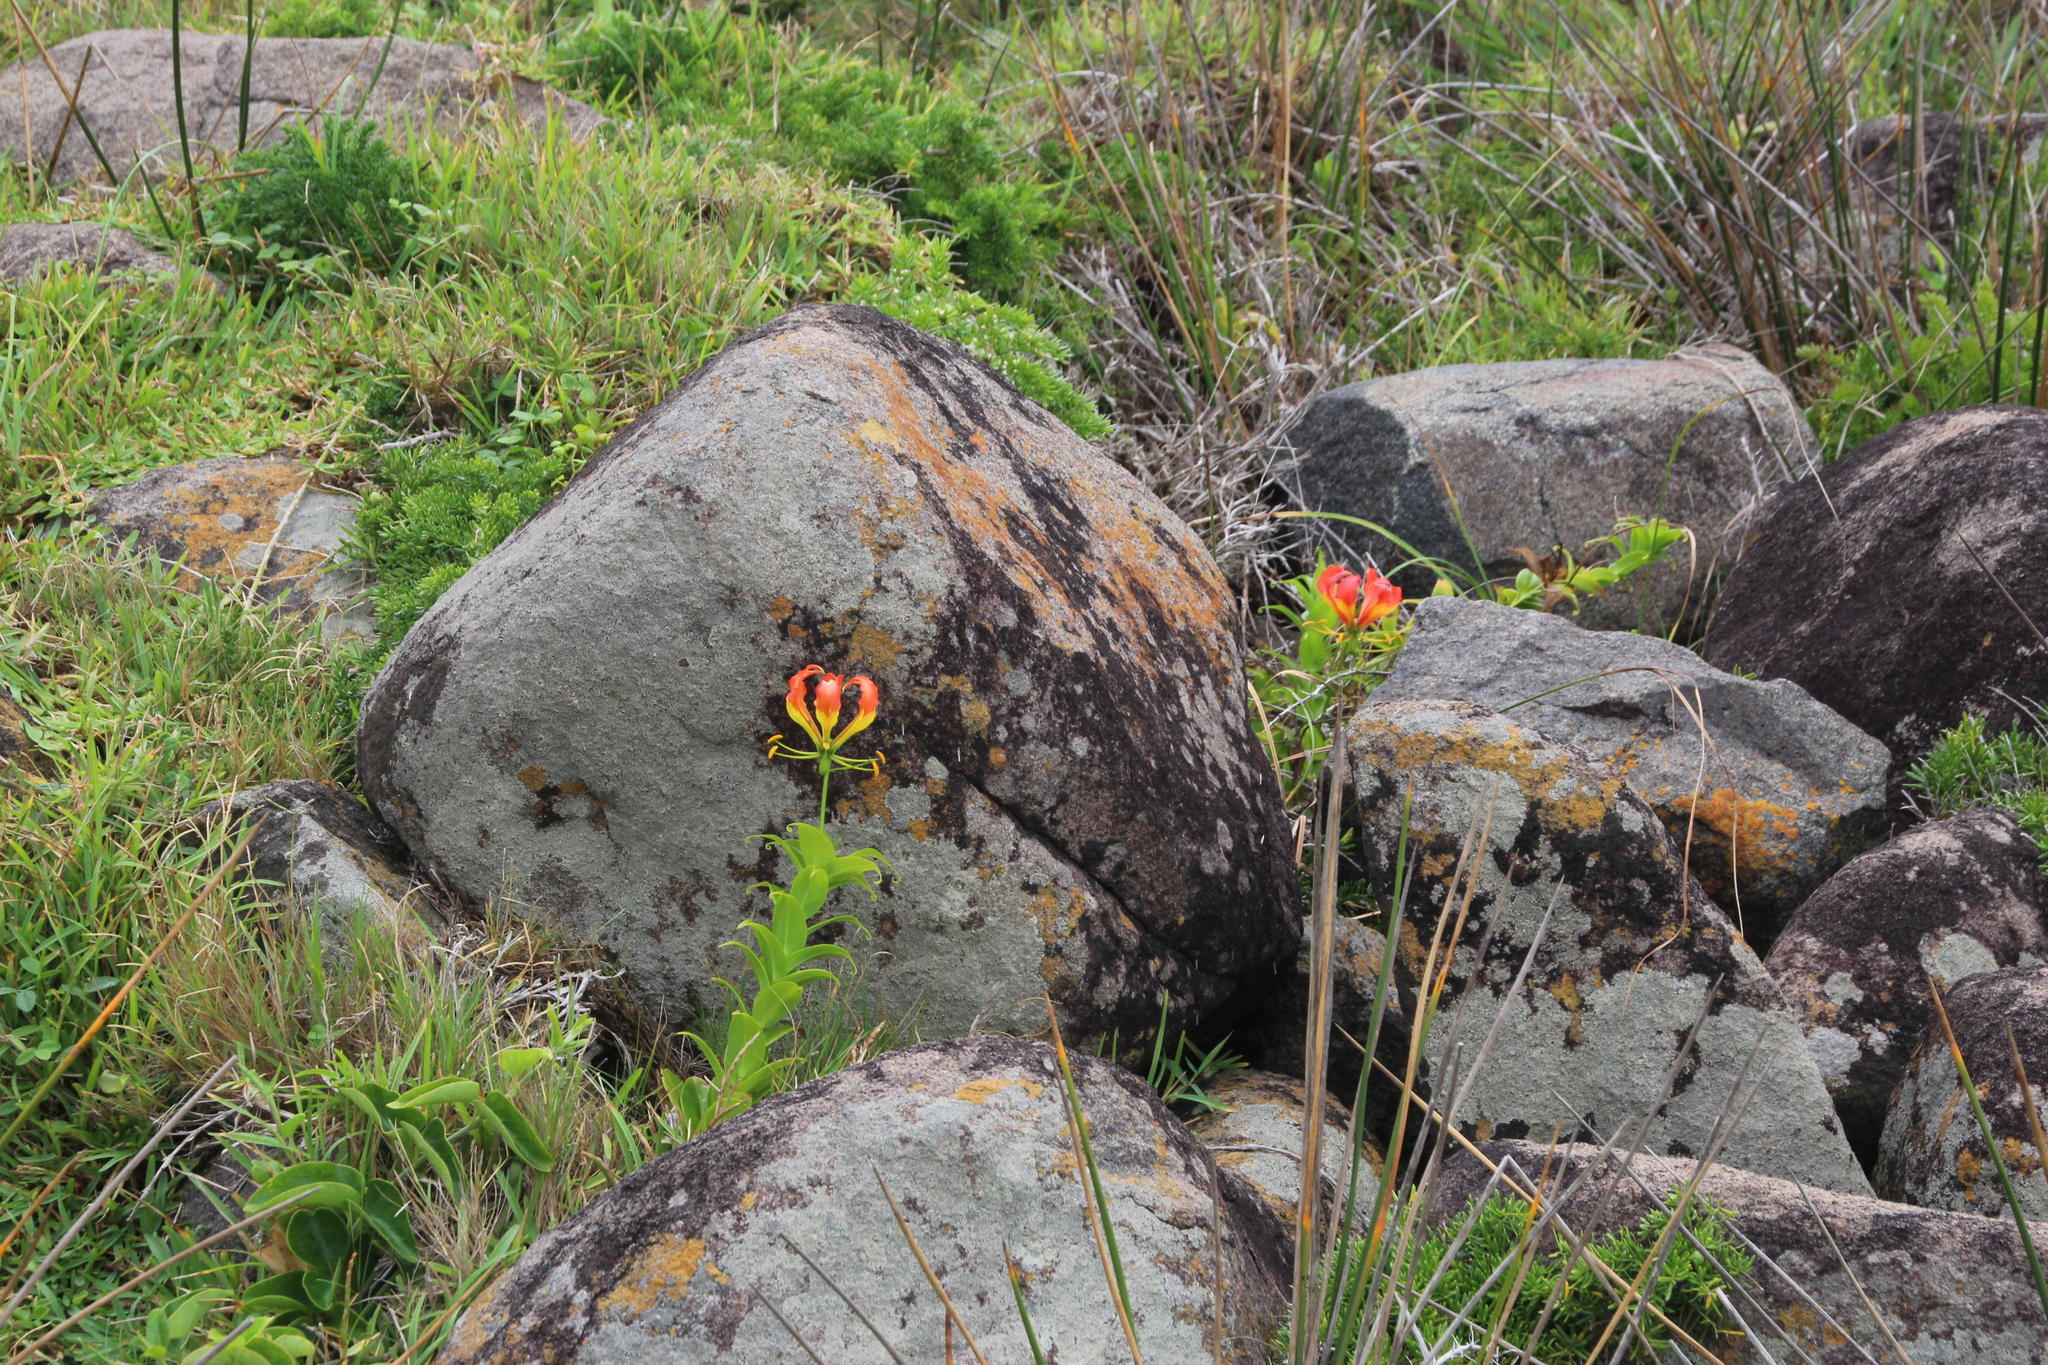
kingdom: Plantae
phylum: Tracheophyta
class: Liliopsida
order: Liliales
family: Colchicaceae
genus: Gloriosa
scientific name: Gloriosa superba
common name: Flame lily
